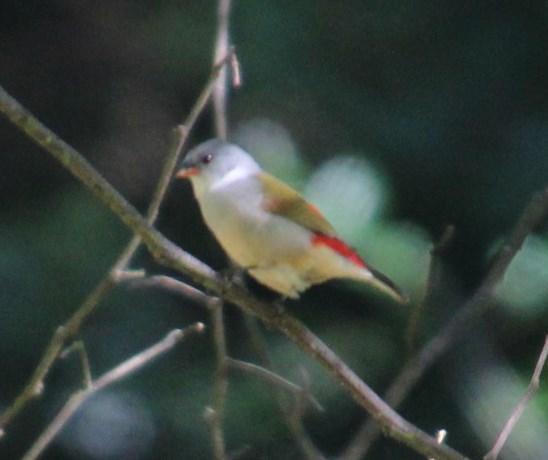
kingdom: Animalia
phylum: Chordata
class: Aves
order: Passeriformes
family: Estrildidae
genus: Coccopygia
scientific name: Coccopygia melanotis
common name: Swee waxbill
